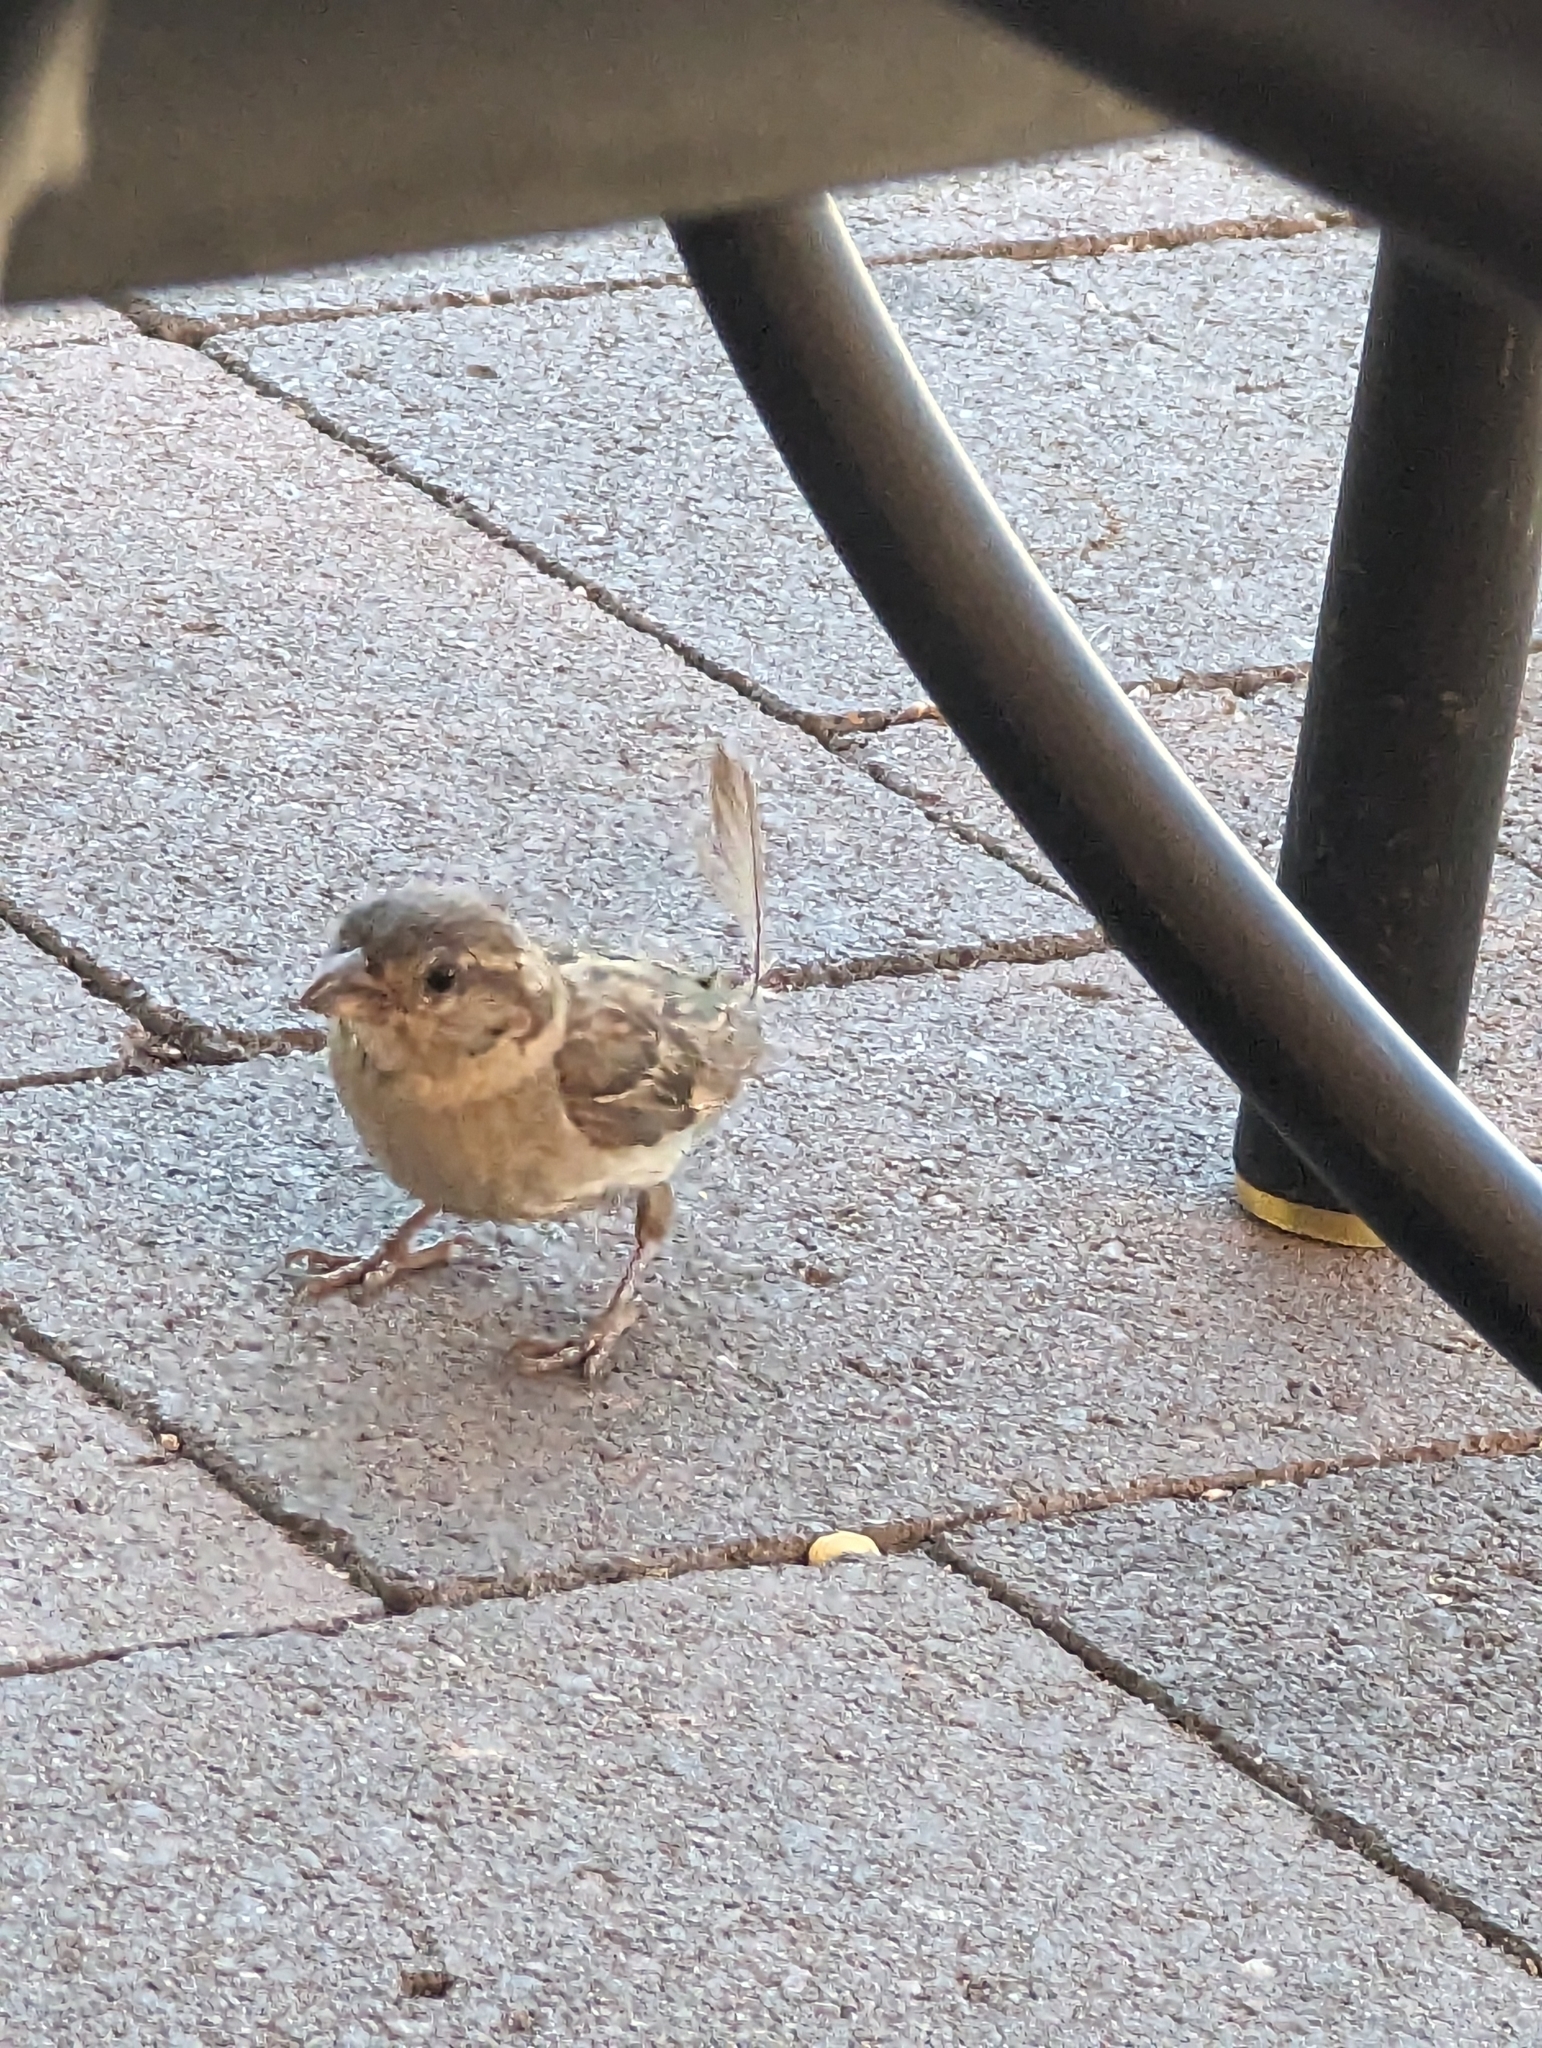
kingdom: Animalia
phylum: Chordata
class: Aves
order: Passeriformes
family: Passeridae
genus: Passer
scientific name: Passer domesticus
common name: House sparrow
